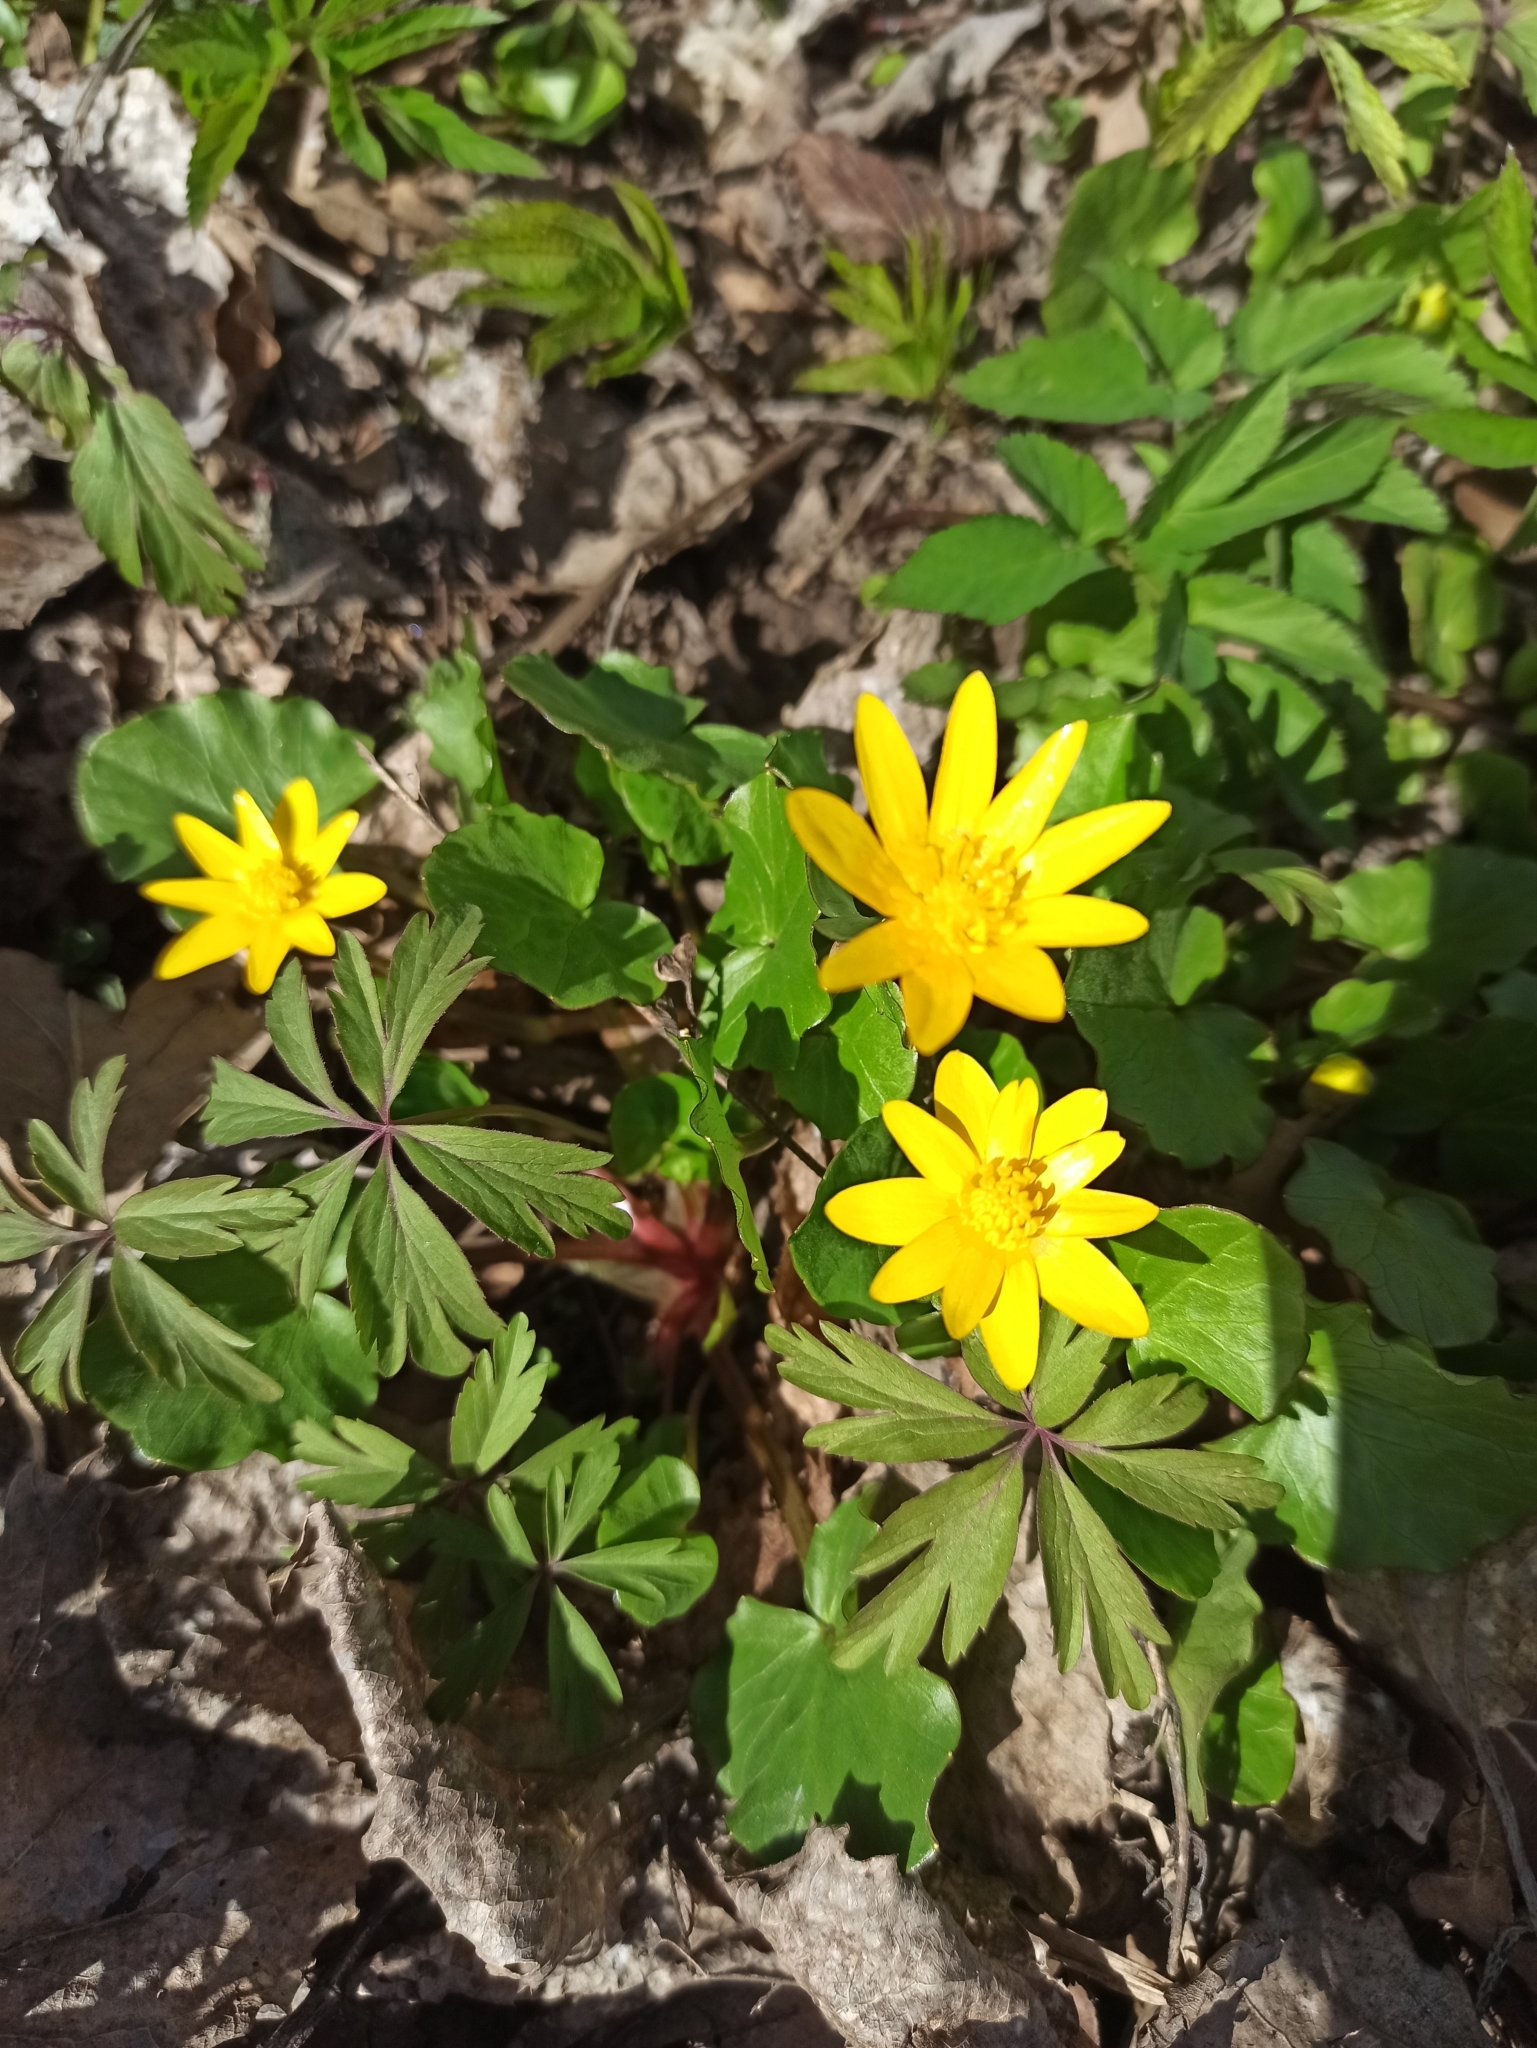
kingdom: Plantae
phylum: Tracheophyta
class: Magnoliopsida
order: Ranunculales
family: Ranunculaceae
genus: Ficaria
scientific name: Ficaria verna
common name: Lesser celandine
